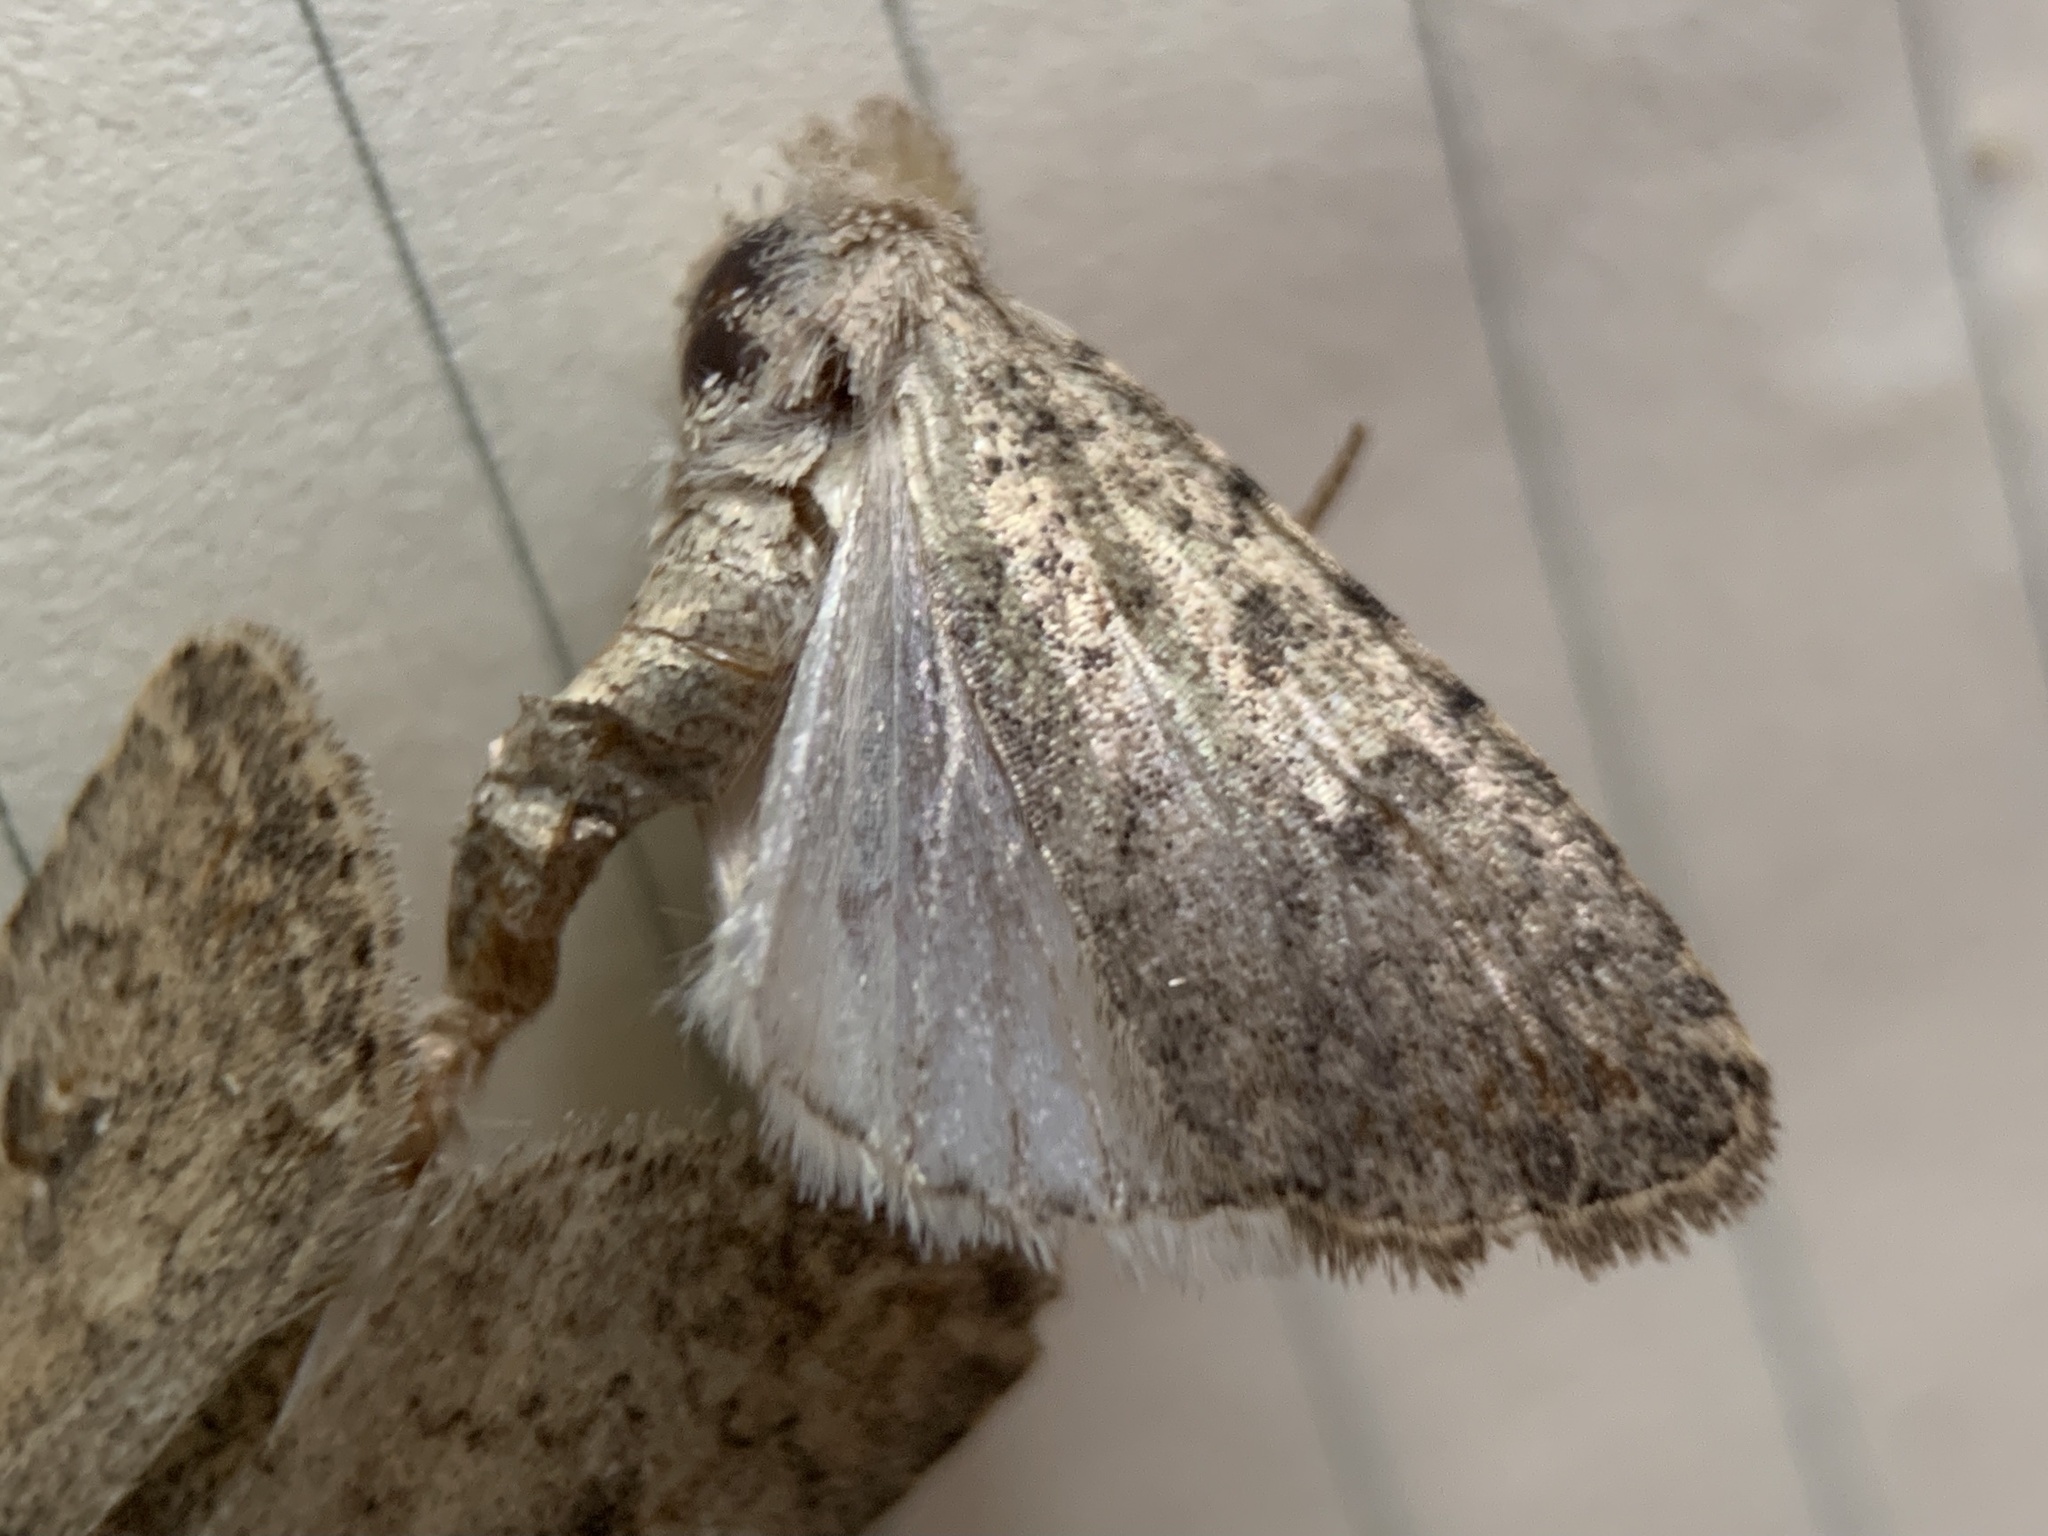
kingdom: Animalia
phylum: Arthropoda
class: Insecta
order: Lepidoptera
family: Noctuidae
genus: Caradrina
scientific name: Caradrina clavipalpis
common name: Pale mottled willow
